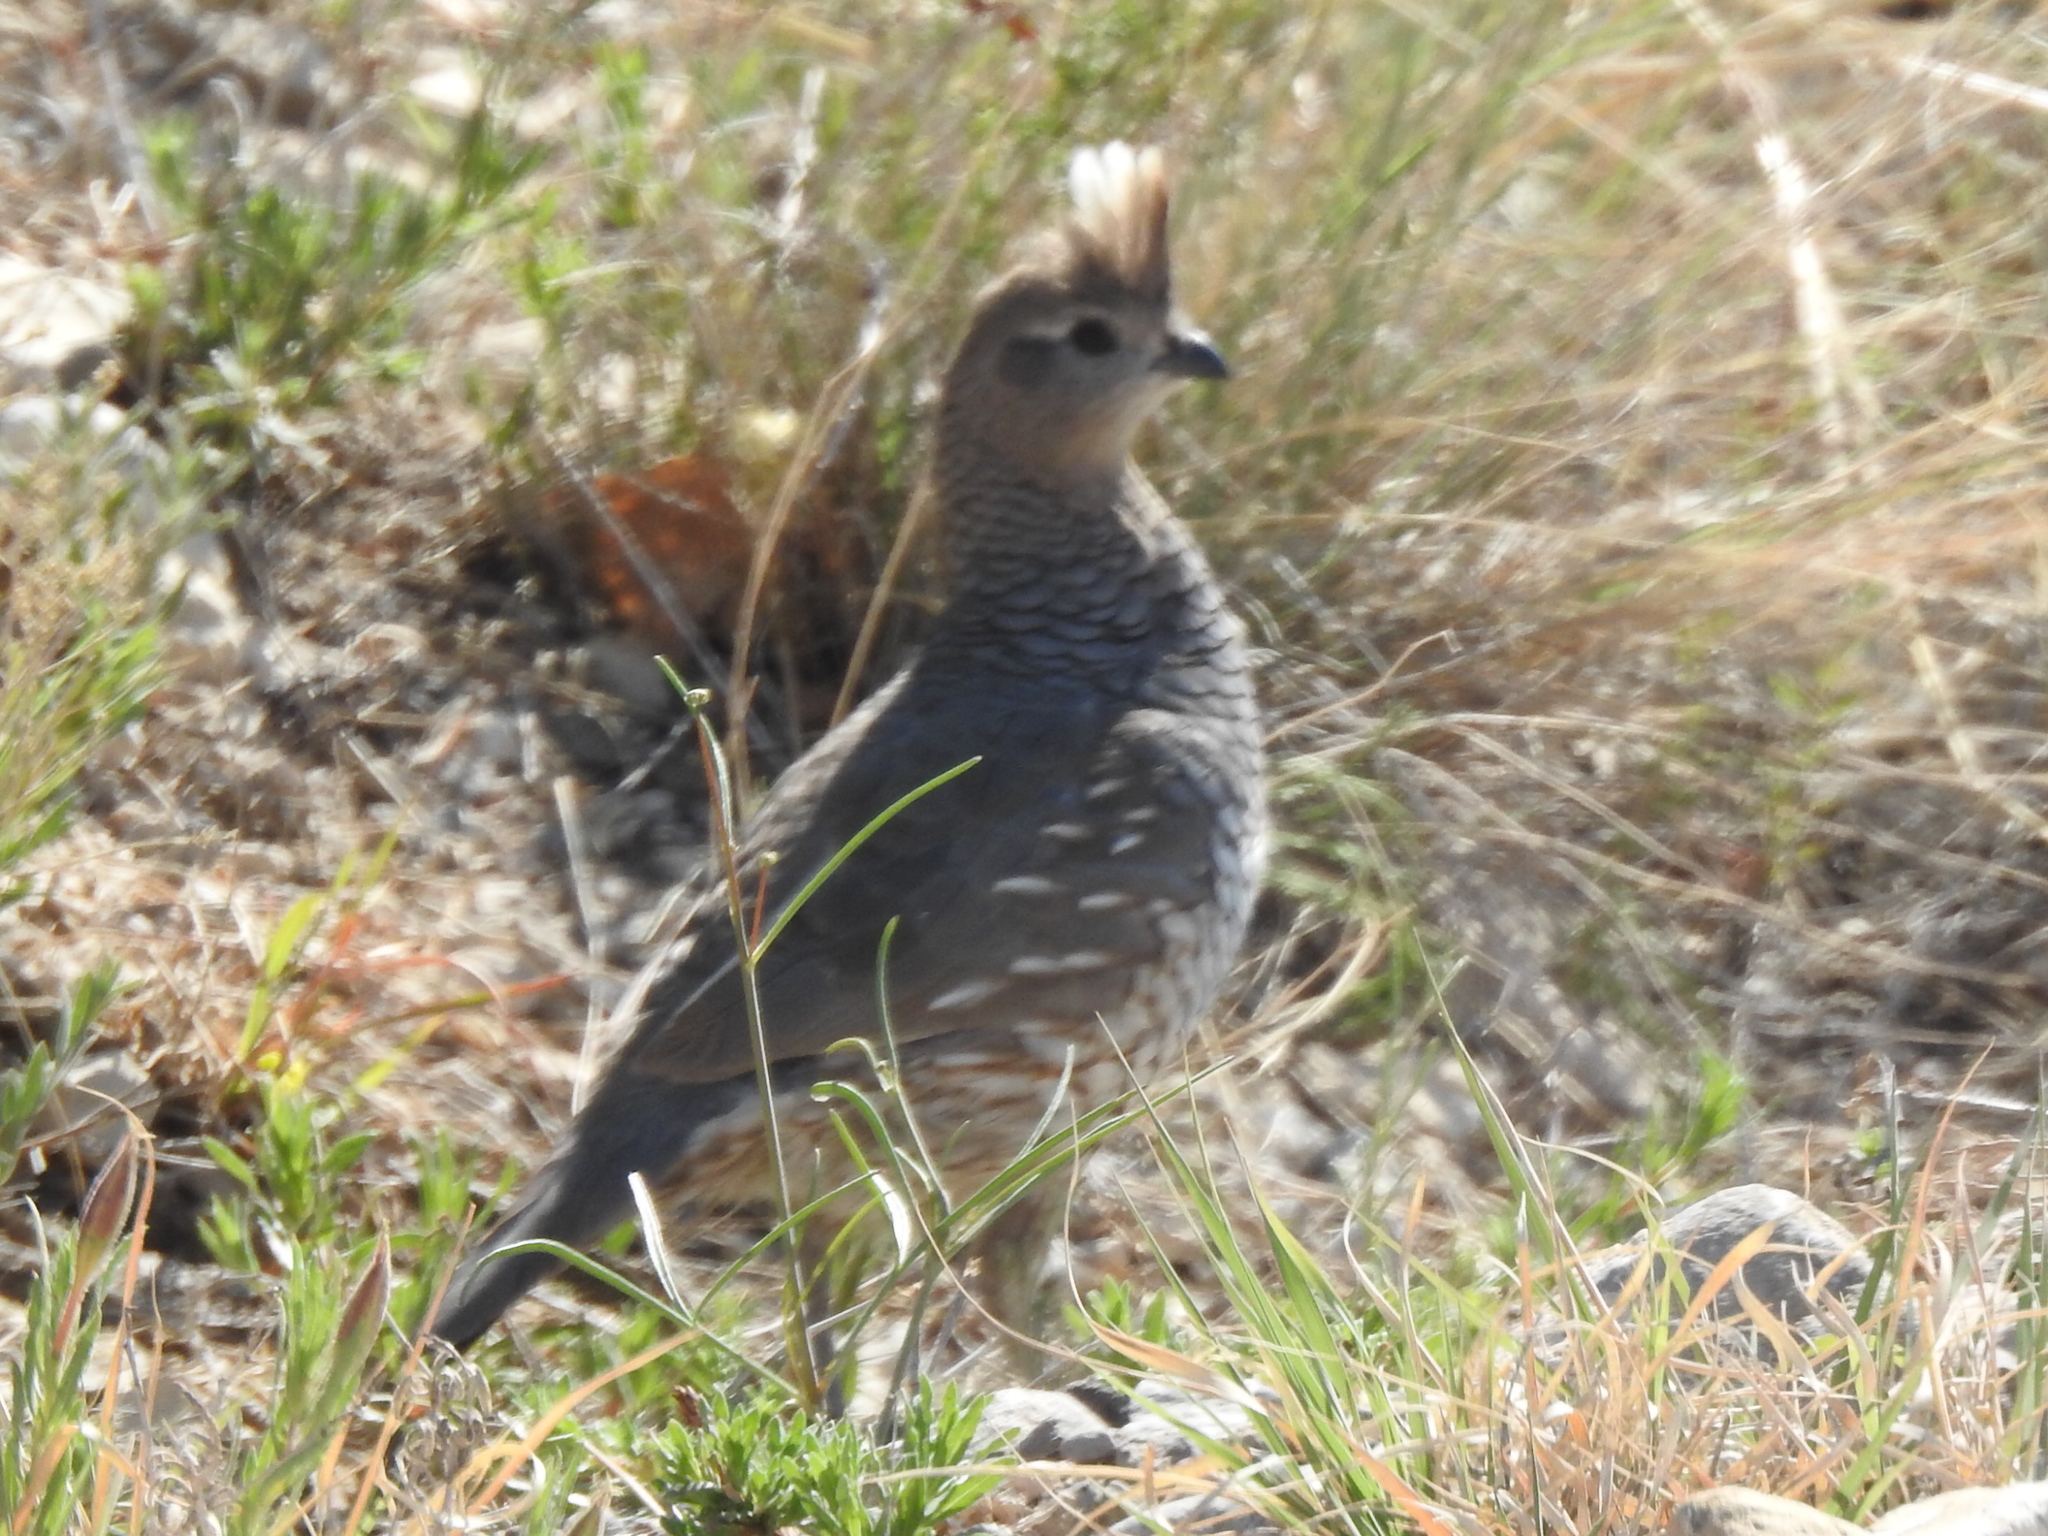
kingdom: Animalia
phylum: Chordata
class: Aves
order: Galliformes
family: Odontophoridae
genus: Callipepla
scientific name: Callipepla squamata
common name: Scaled quail
